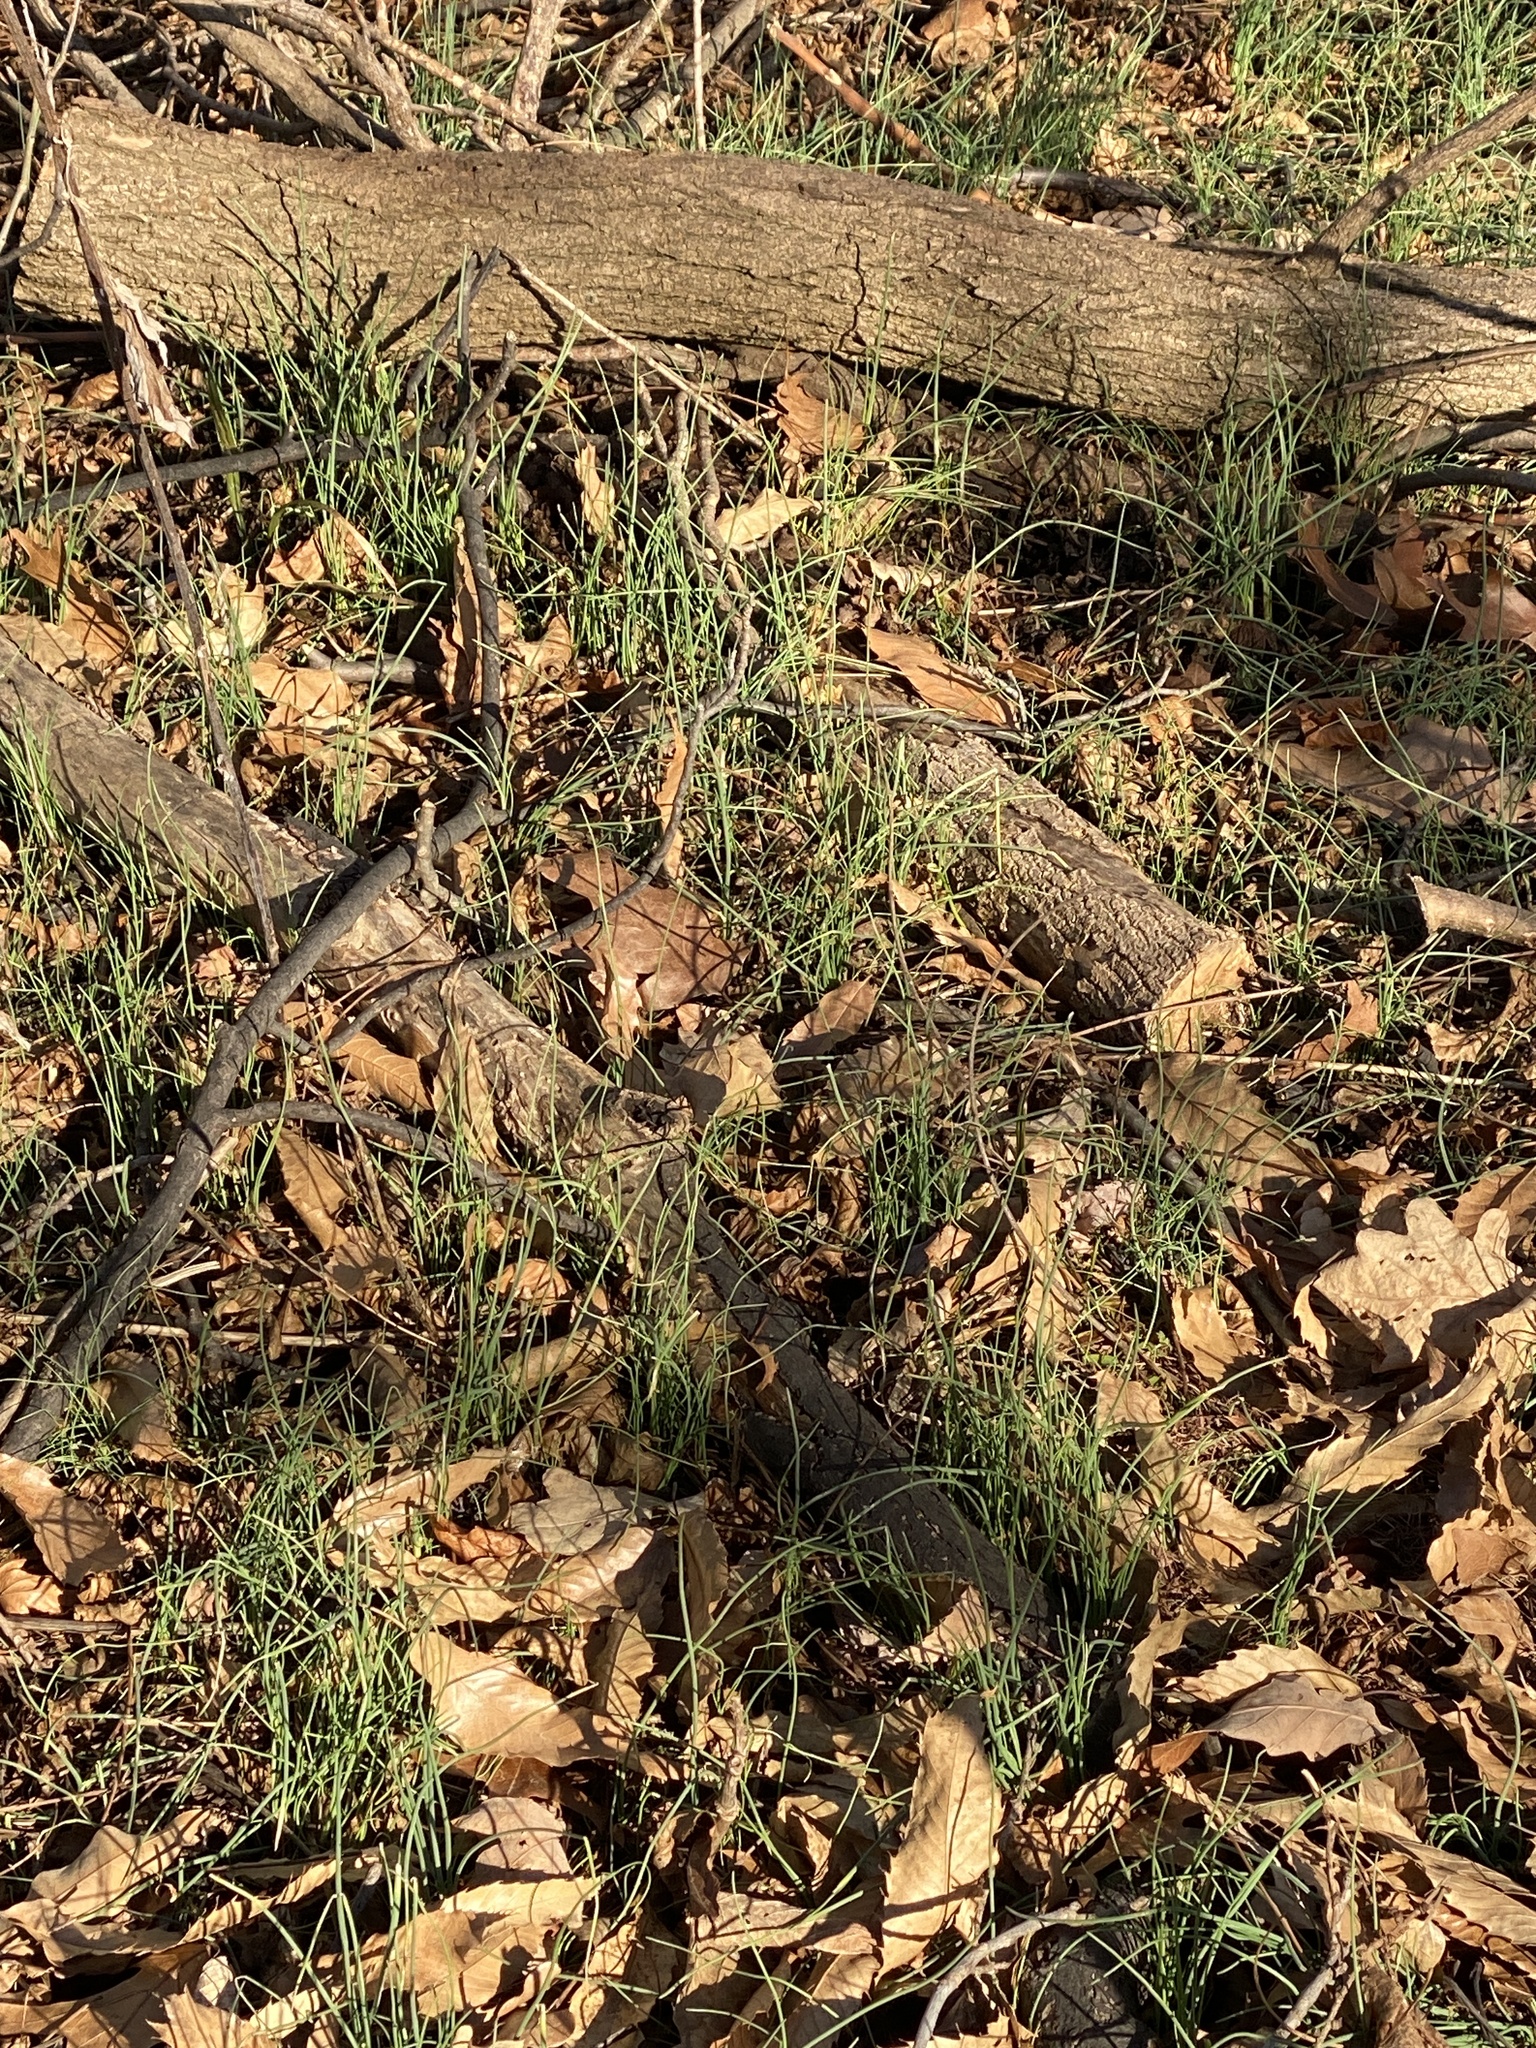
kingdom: Plantae
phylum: Tracheophyta
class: Liliopsida
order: Asparagales
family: Amaryllidaceae
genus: Allium
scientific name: Allium vineale
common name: Crow garlic
